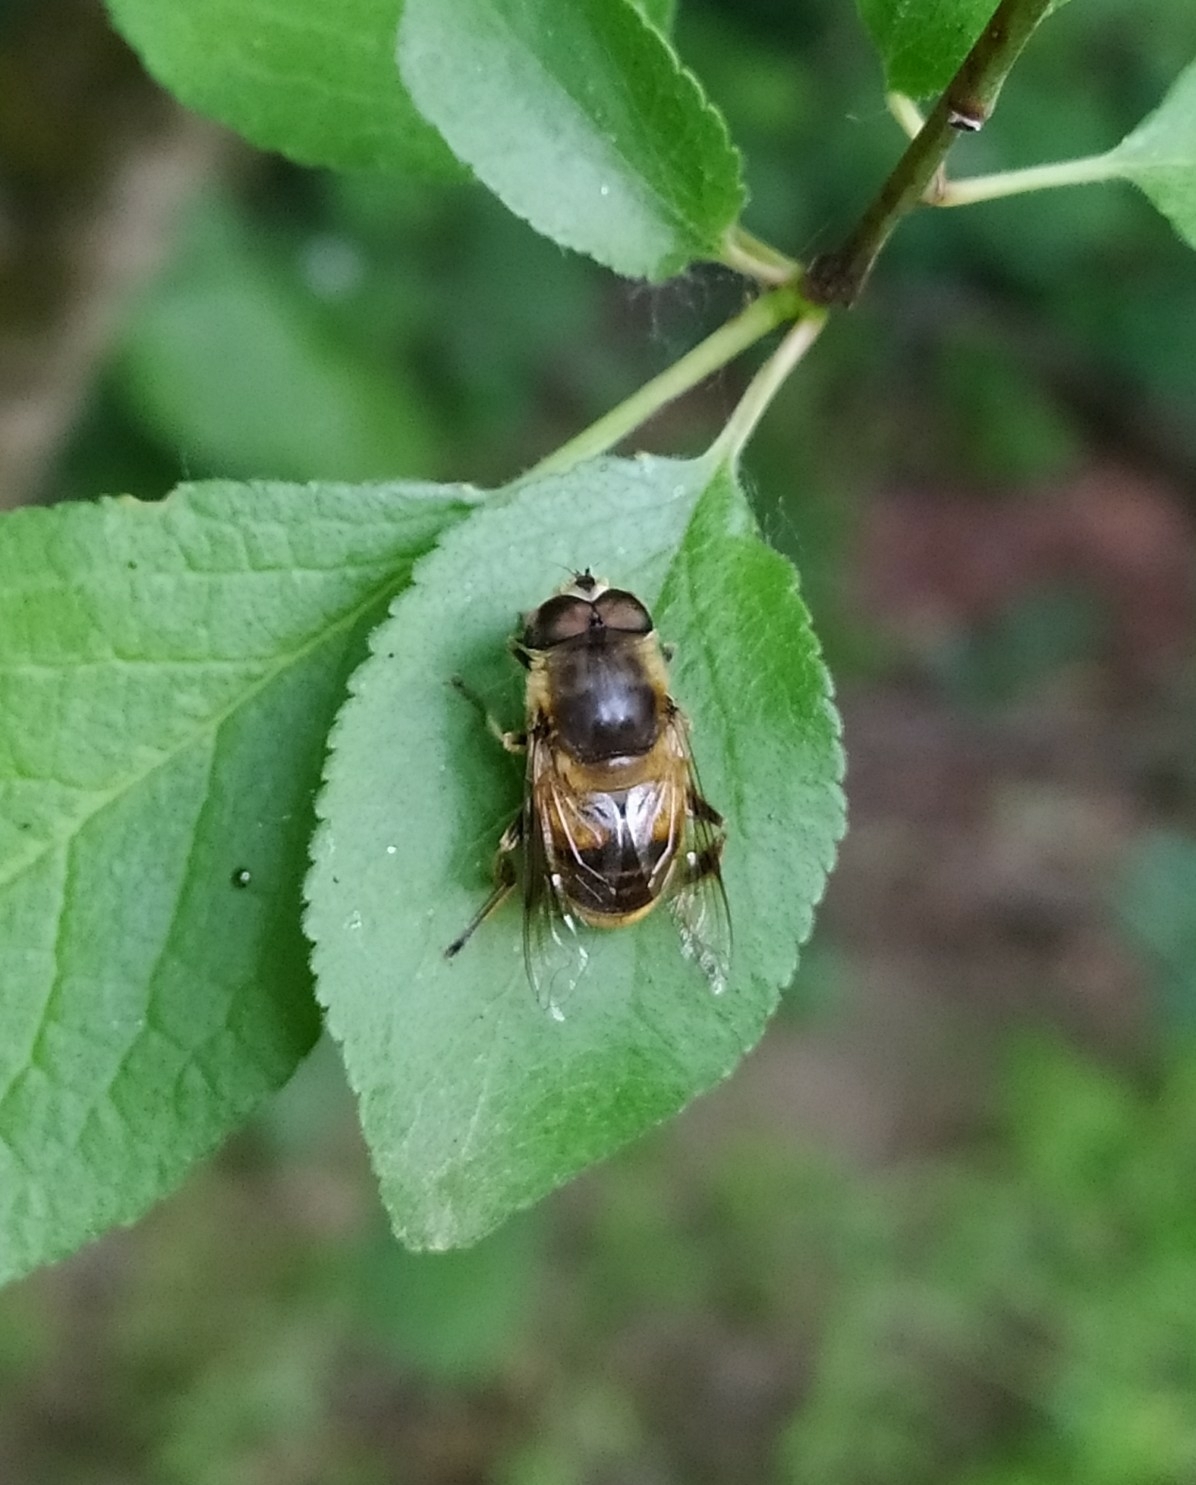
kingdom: Animalia
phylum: Arthropoda
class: Insecta
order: Diptera
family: Syrphidae
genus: Eristalis
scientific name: Eristalis tenax
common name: Drone fly
